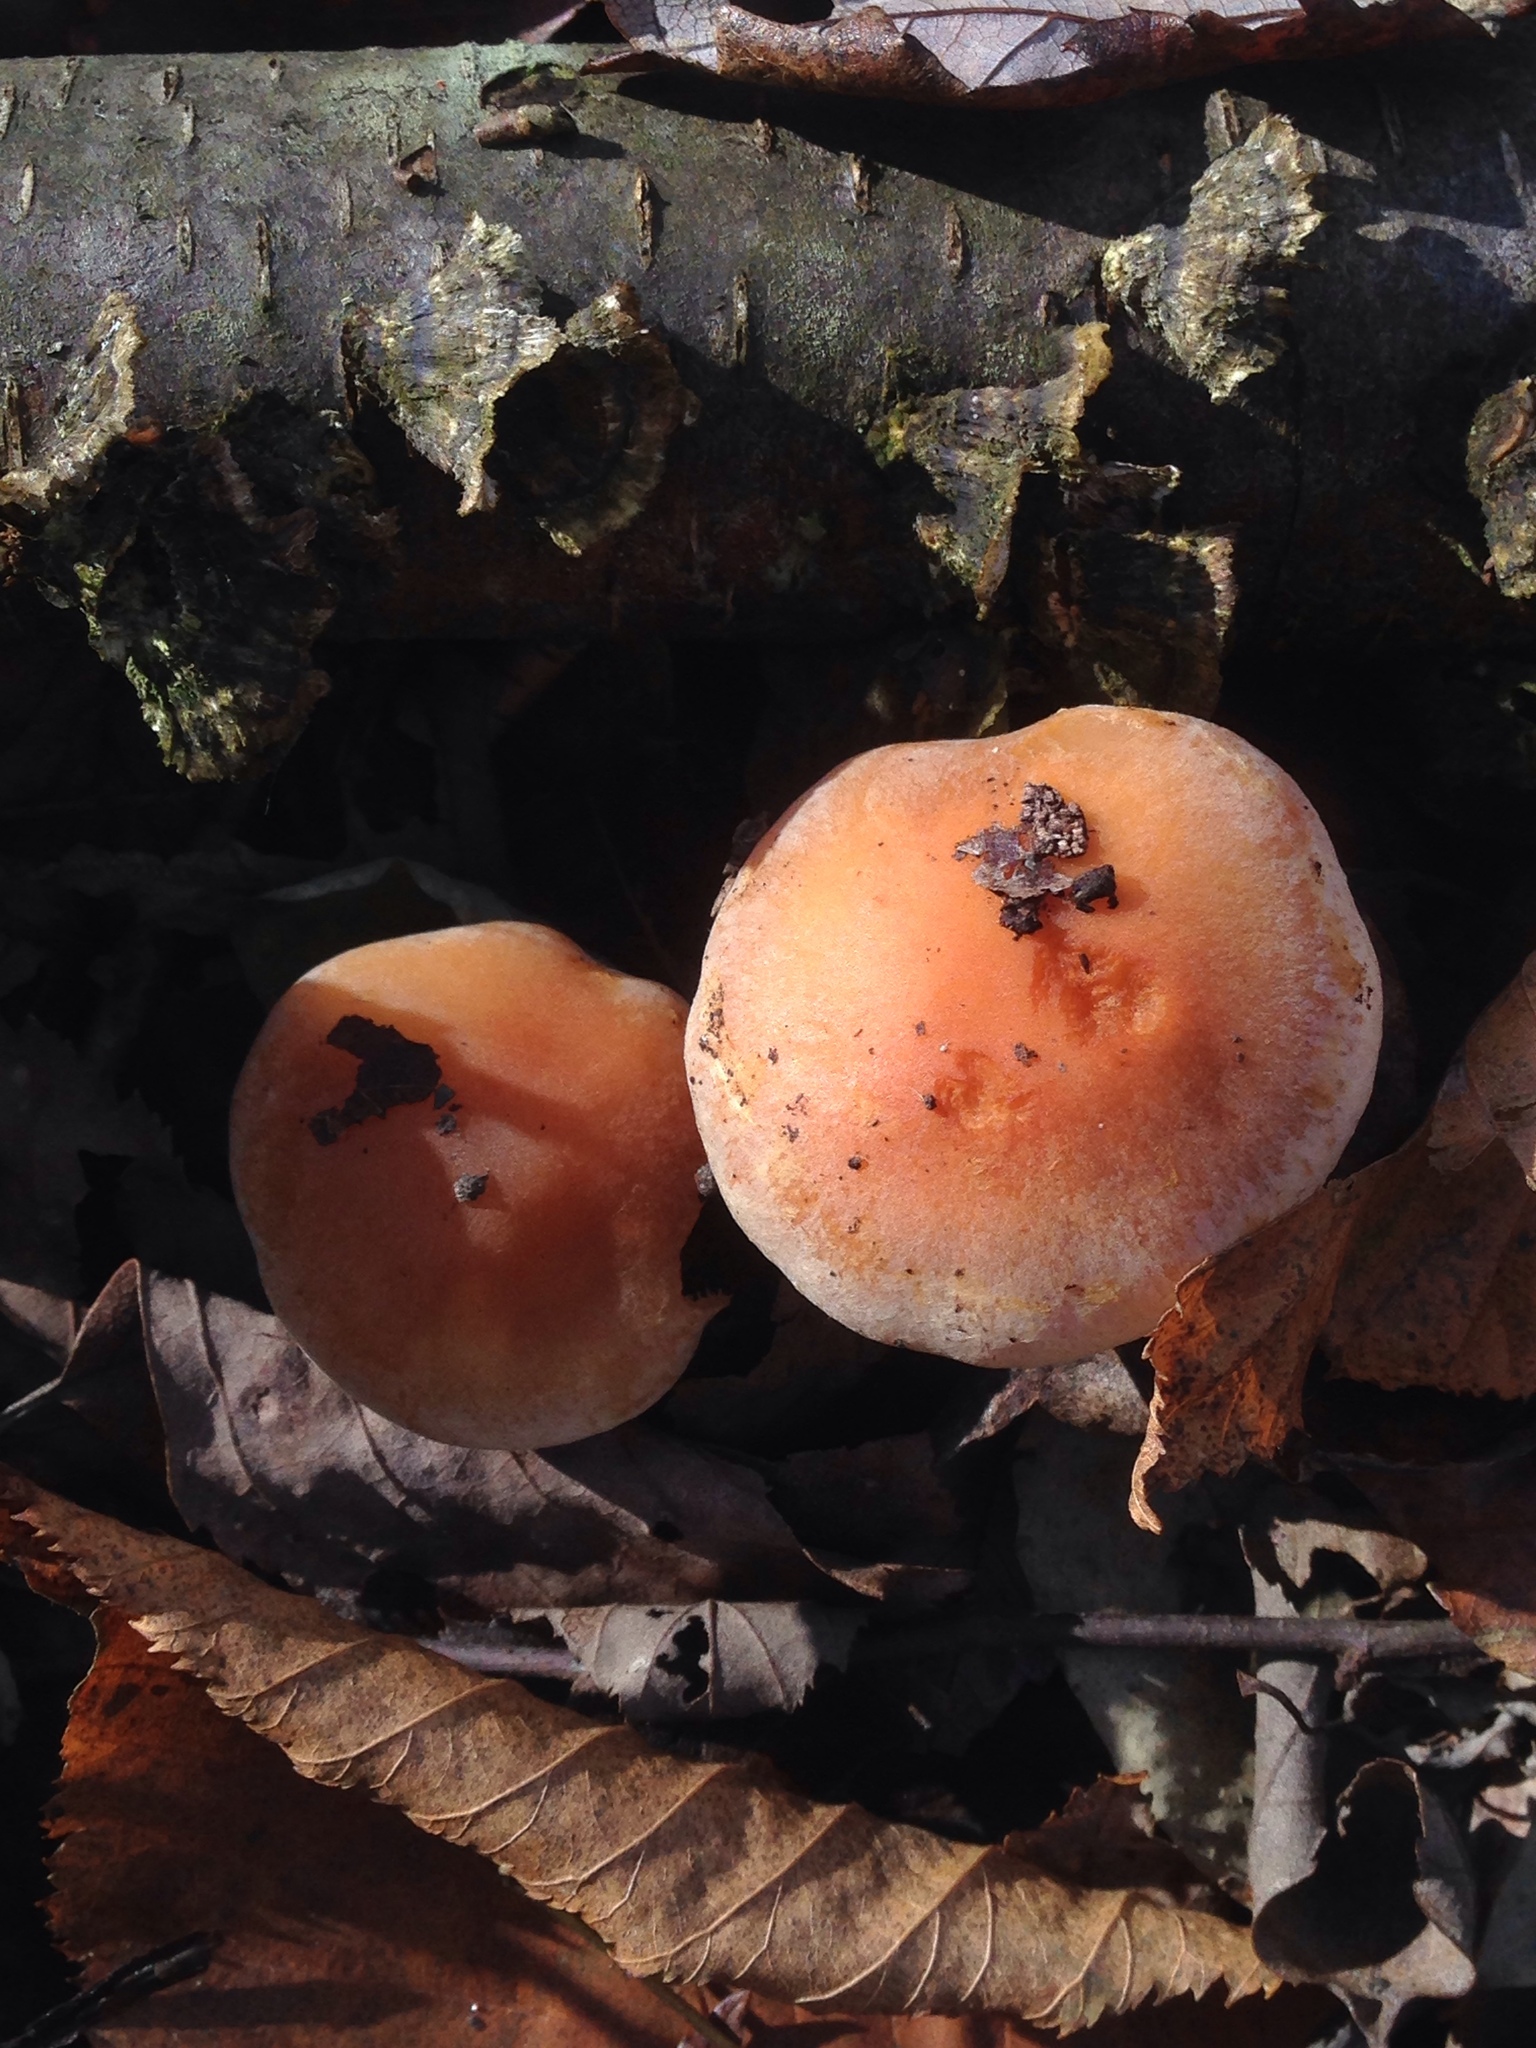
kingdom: Fungi
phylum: Basidiomycota
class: Agaricomycetes
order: Agaricales
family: Strophariaceae
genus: Hypholoma
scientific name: Hypholoma capnoides
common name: Conifer tuft
